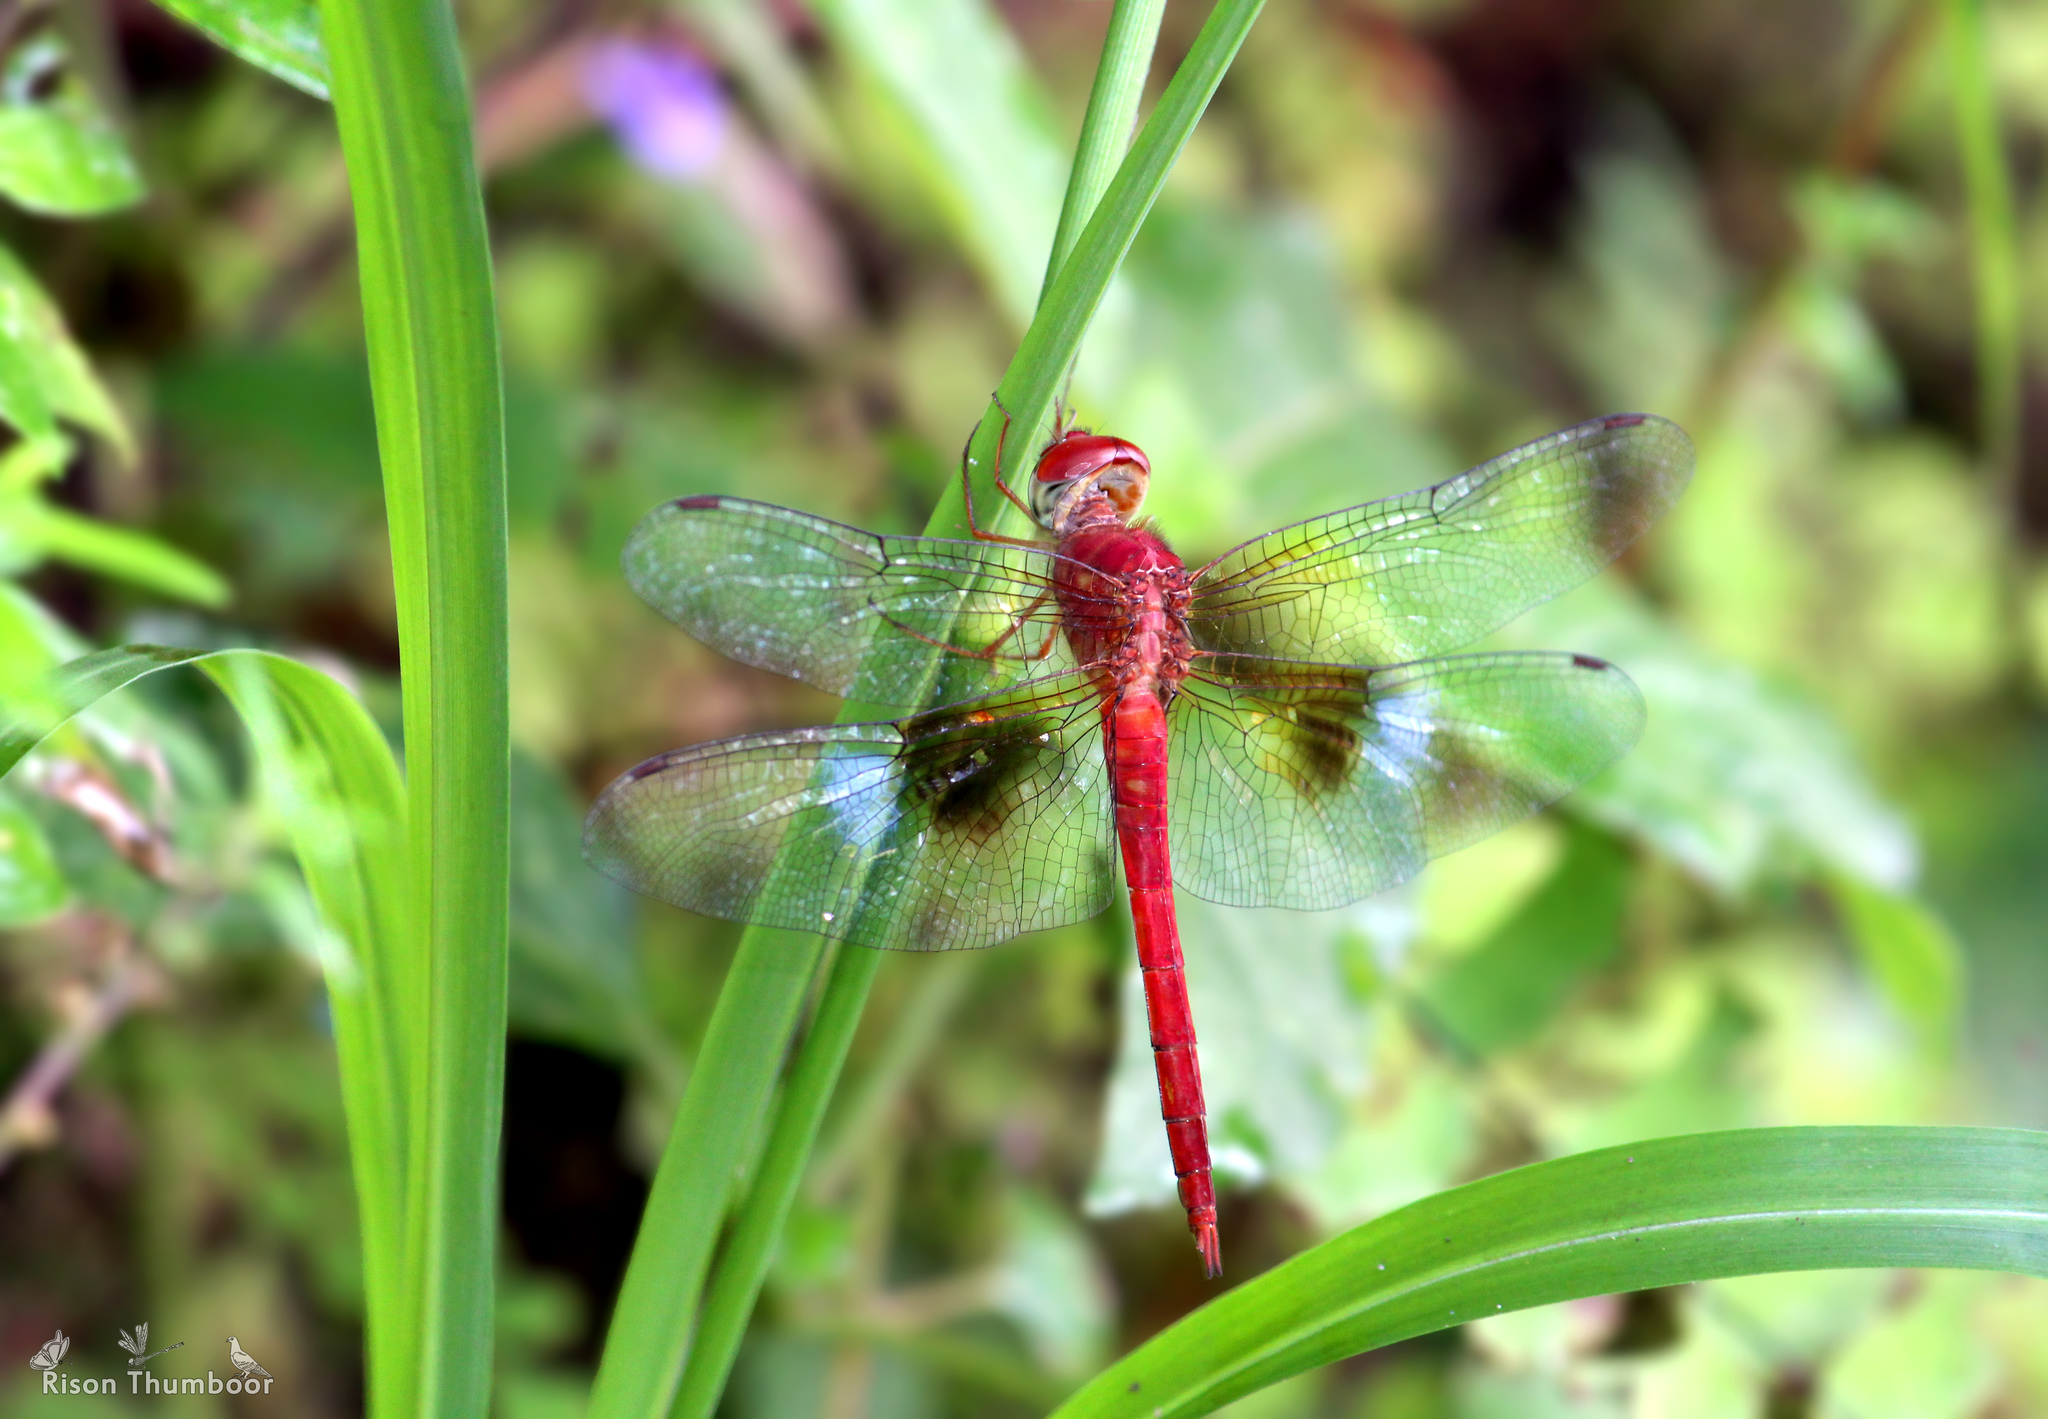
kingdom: Animalia
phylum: Arthropoda
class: Insecta
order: Odonata
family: Libellulidae
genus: Tholymis
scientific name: Tholymis tillarga
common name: Coral-tailed cloud wing
